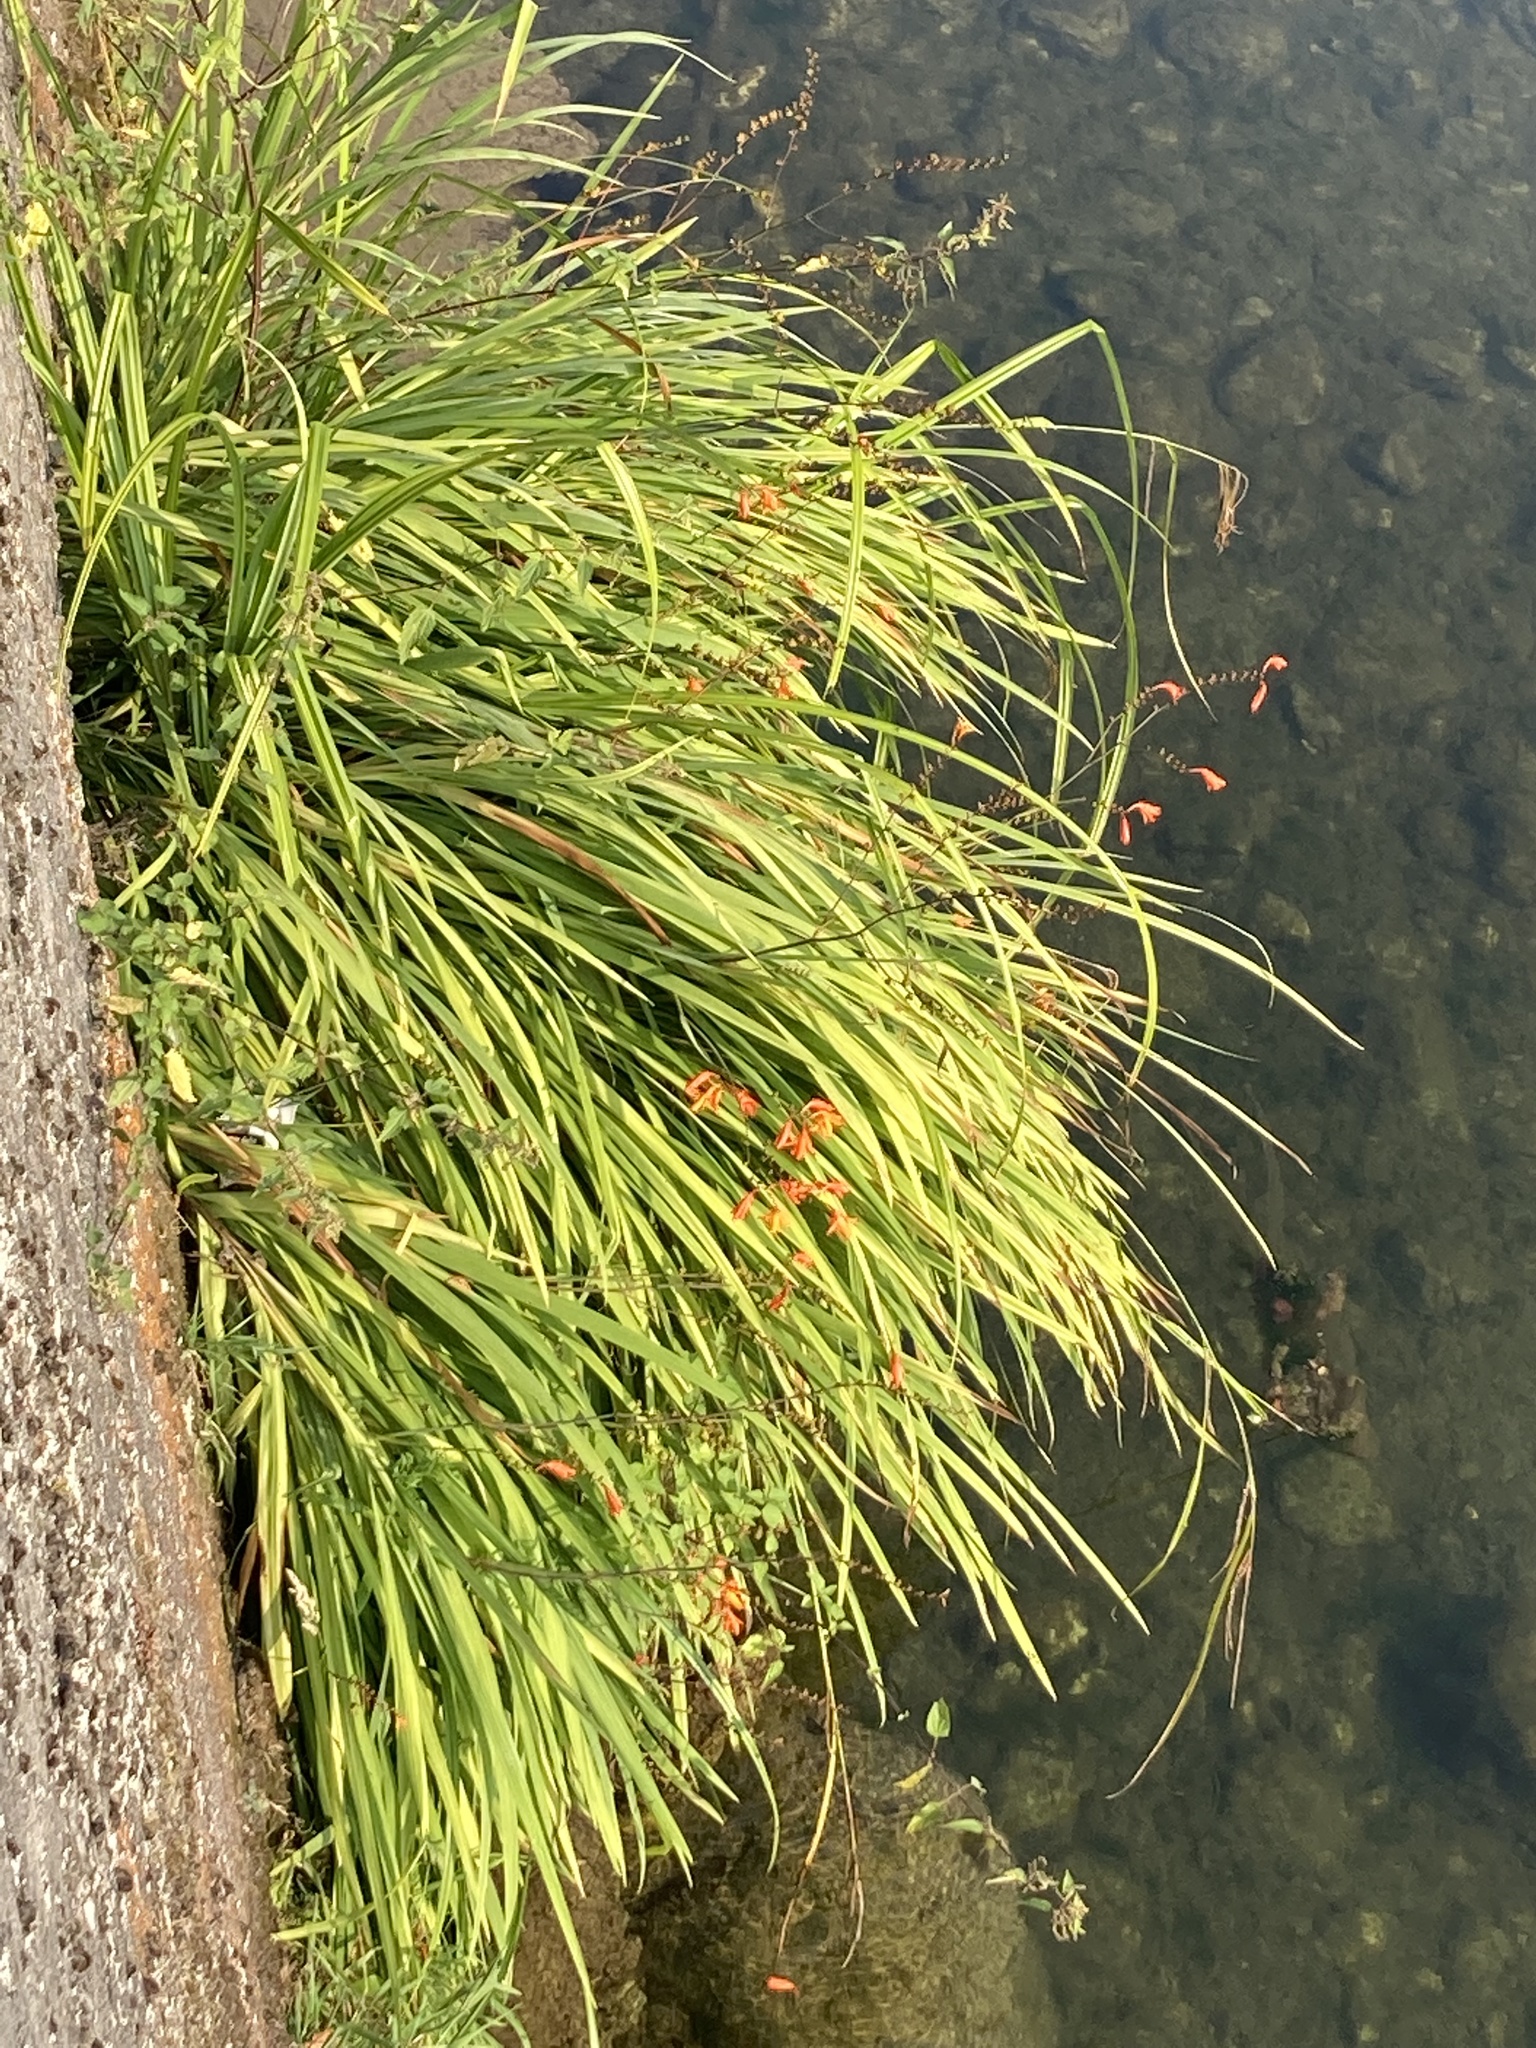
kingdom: Plantae
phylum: Tracheophyta
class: Liliopsida
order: Asparagales
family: Iridaceae
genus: Crocosmia
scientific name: Crocosmia crocosmiiflora
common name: Montbretia
